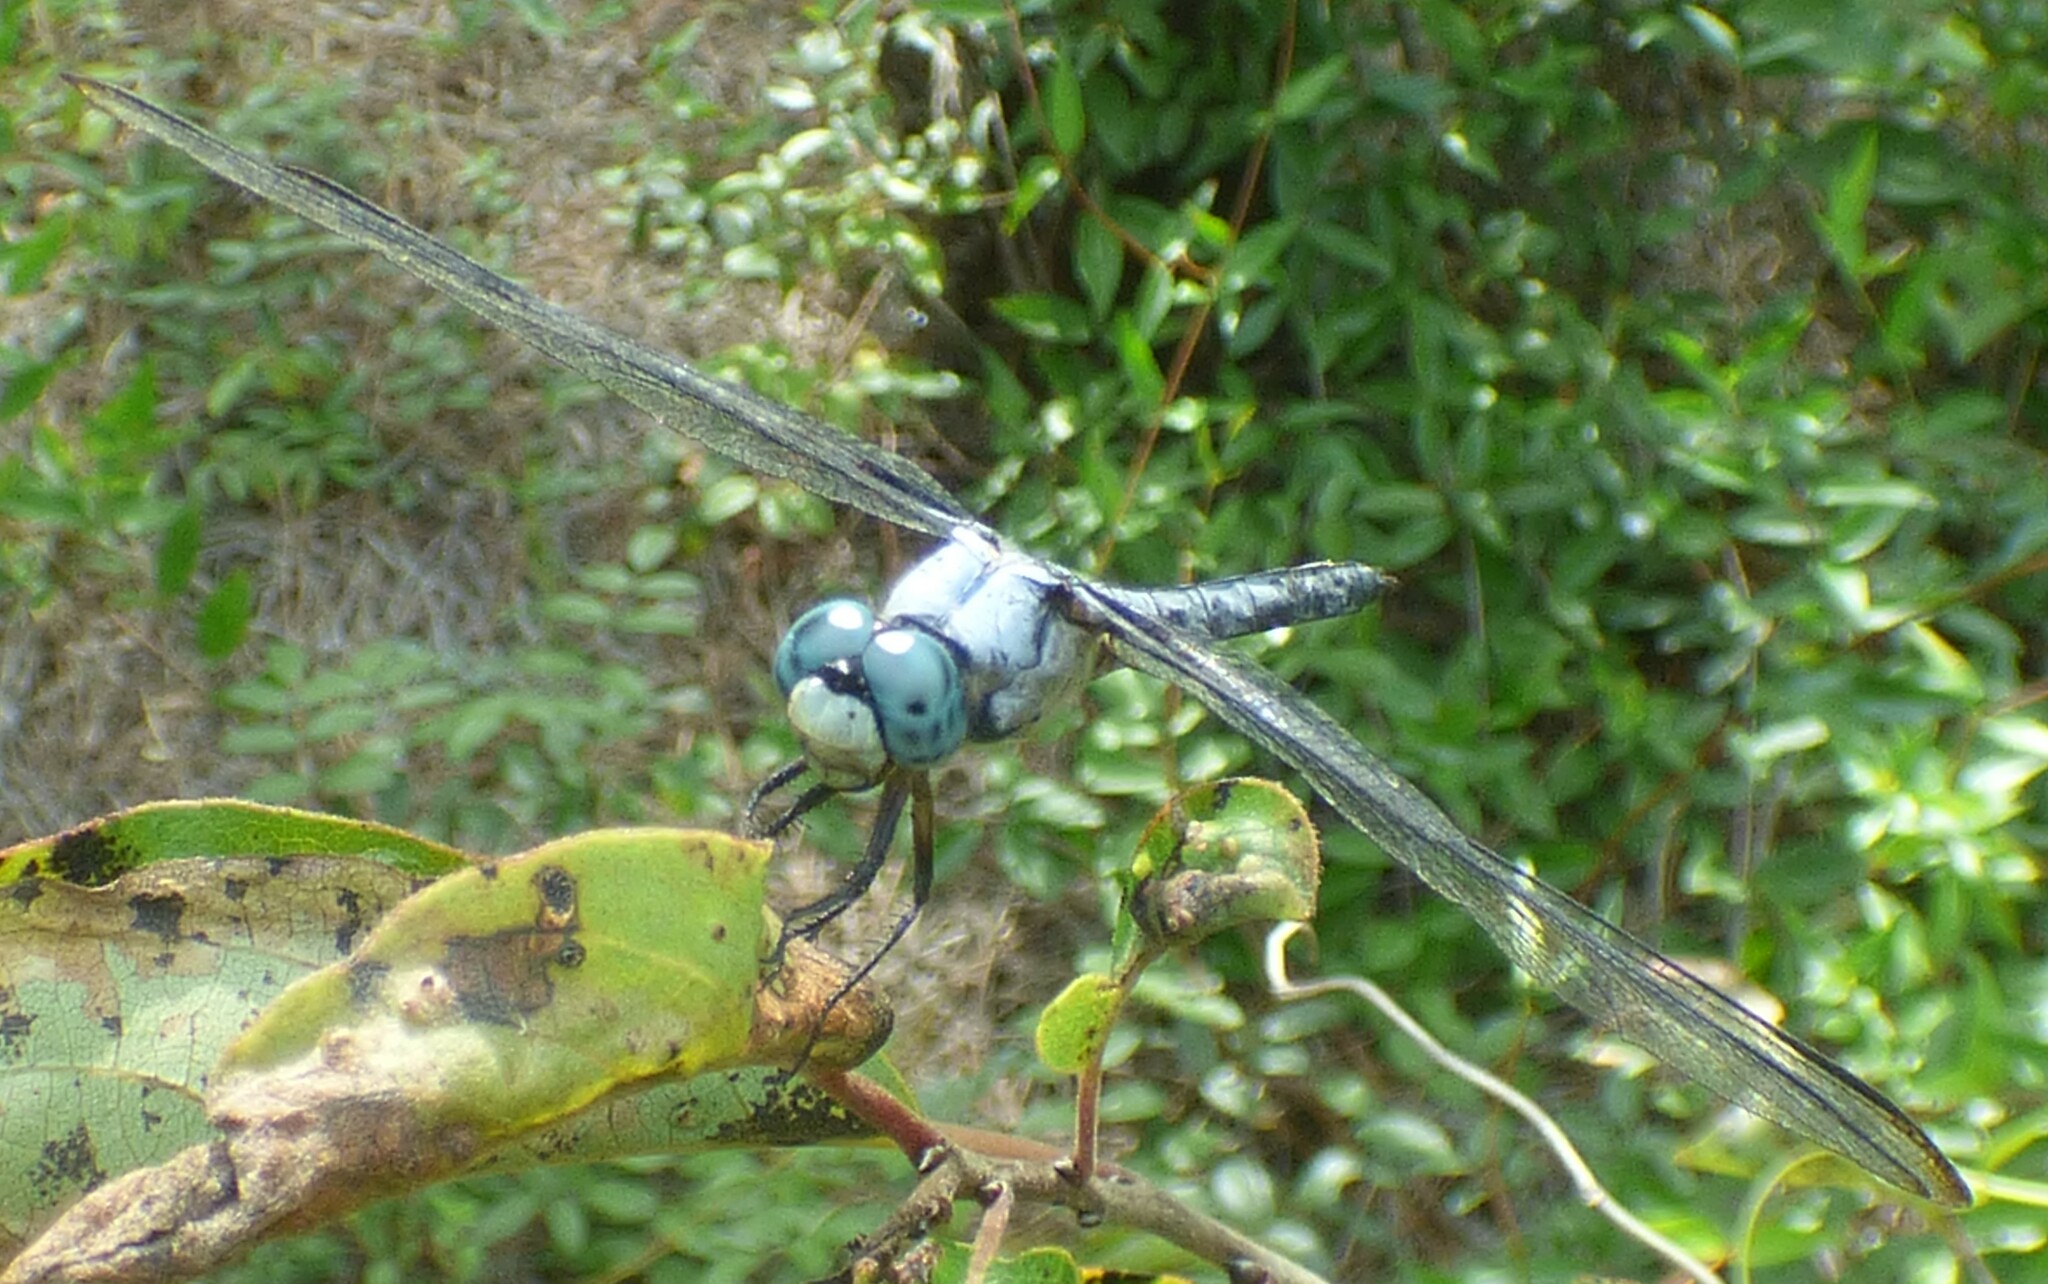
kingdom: Animalia
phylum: Arthropoda
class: Insecta
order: Odonata
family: Libellulidae
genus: Libellula
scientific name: Libellula vibrans
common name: Great blue skimmer
